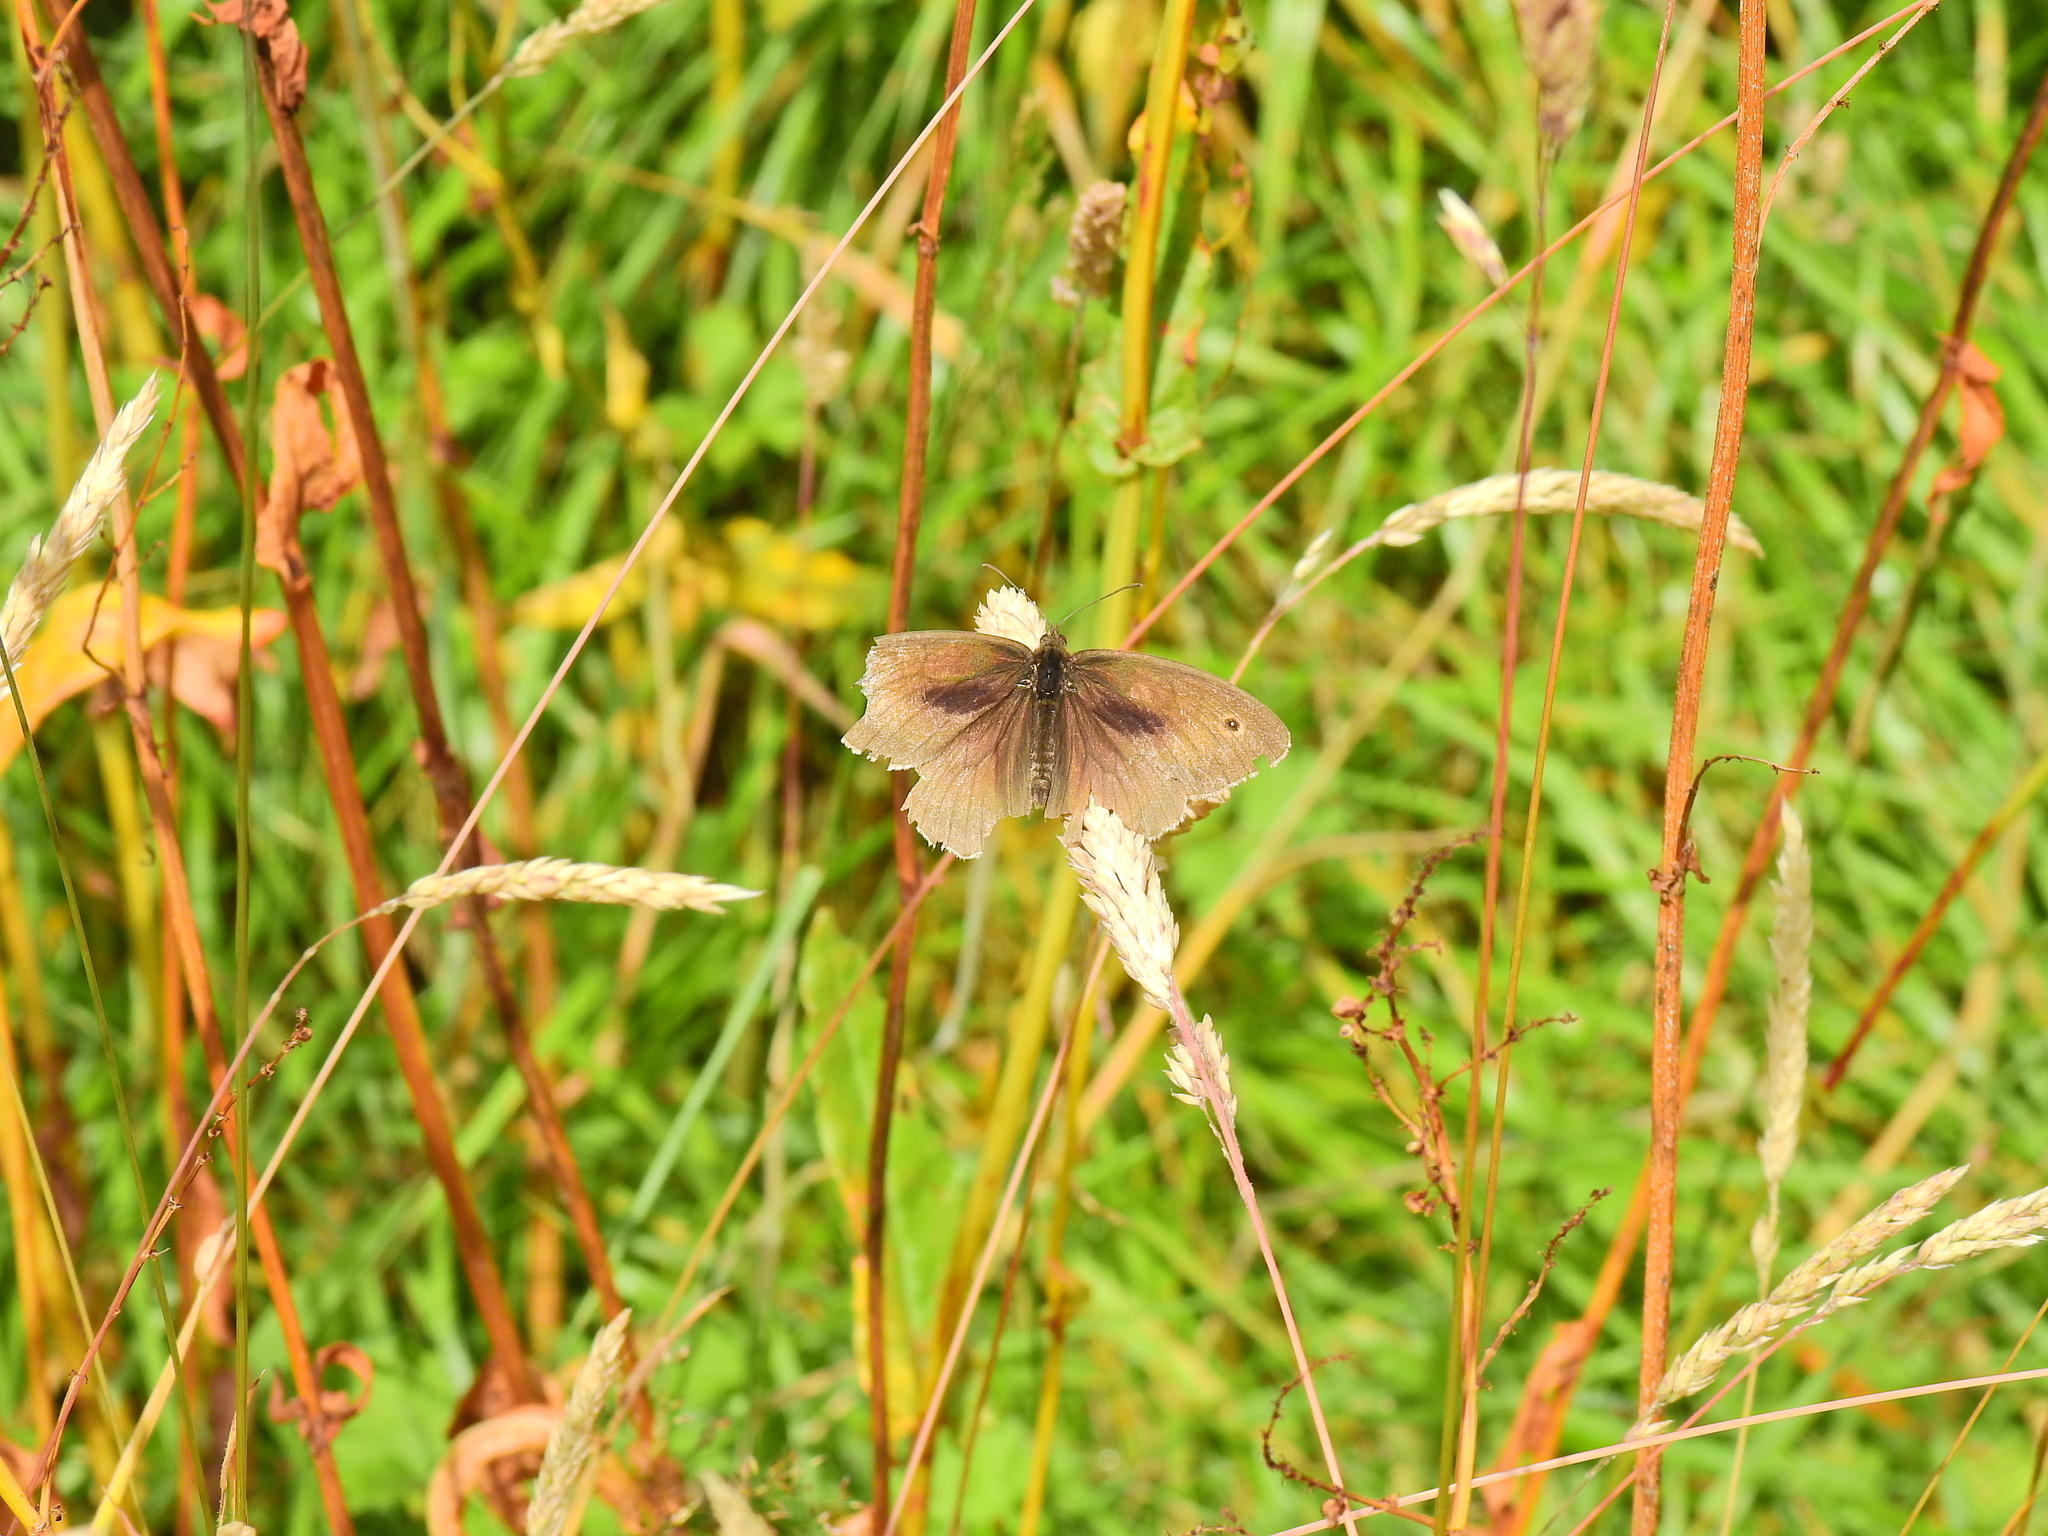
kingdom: Animalia
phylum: Arthropoda
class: Insecta
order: Lepidoptera
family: Nymphalidae
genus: Maniola
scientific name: Maniola jurtina
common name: Meadow brown
